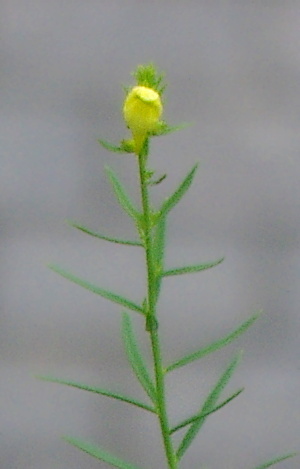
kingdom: Plantae
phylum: Tracheophyta
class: Magnoliopsida
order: Lamiales
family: Plantaginaceae
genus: Linaria
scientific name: Linaria vulgaris
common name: Butter and eggs
